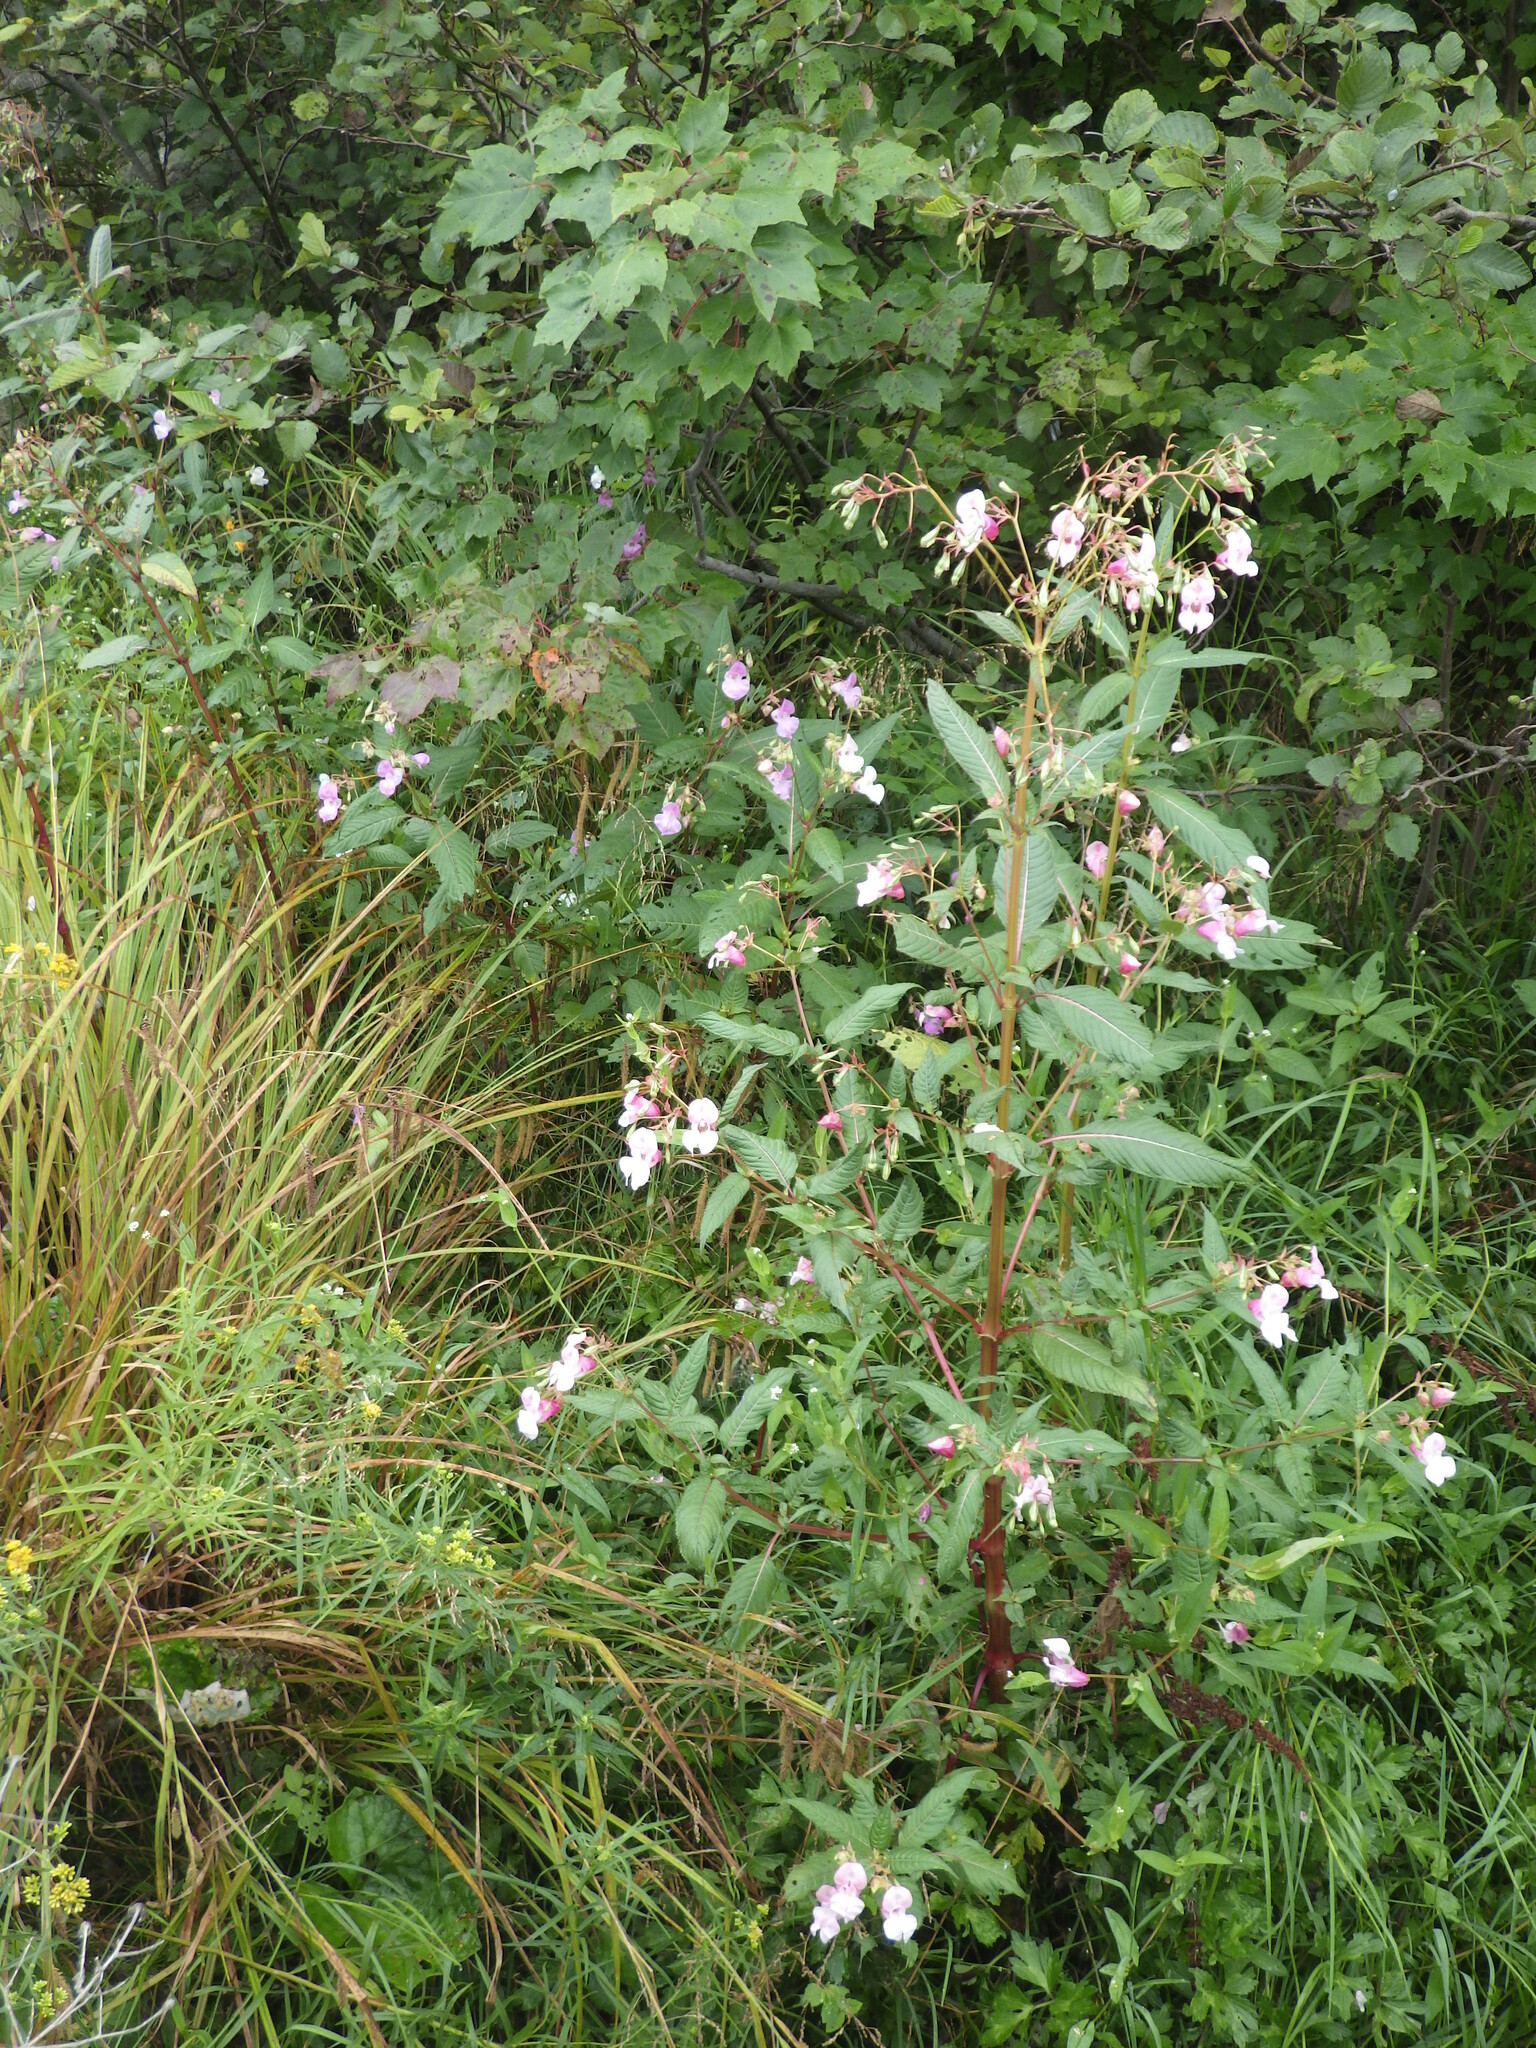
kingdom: Plantae
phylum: Tracheophyta
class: Magnoliopsida
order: Ericales
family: Balsaminaceae
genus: Impatiens
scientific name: Impatiens glandulifera
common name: Himalayan balsam
